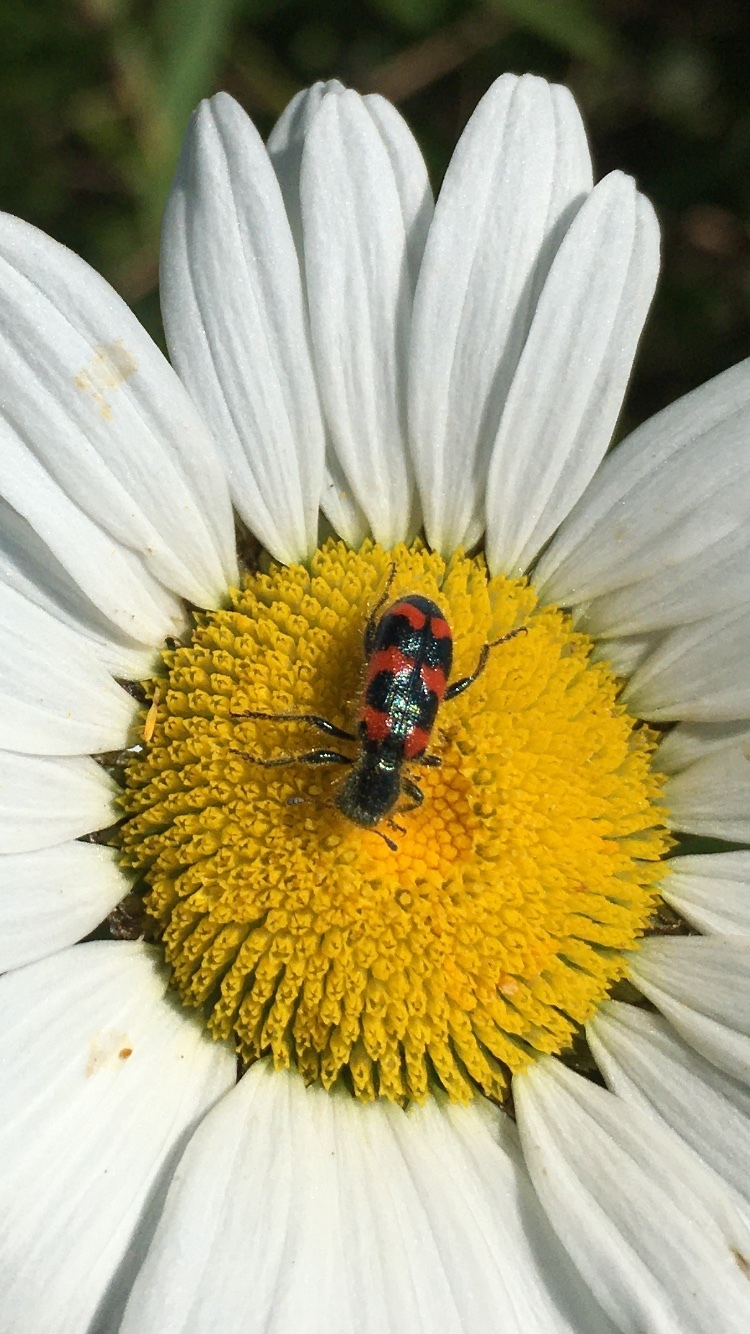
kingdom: Animalia
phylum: Arthropoda
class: Insecta
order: Coleoptera
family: Cleridae
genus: Trichodes
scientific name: Trichodes nutalli
